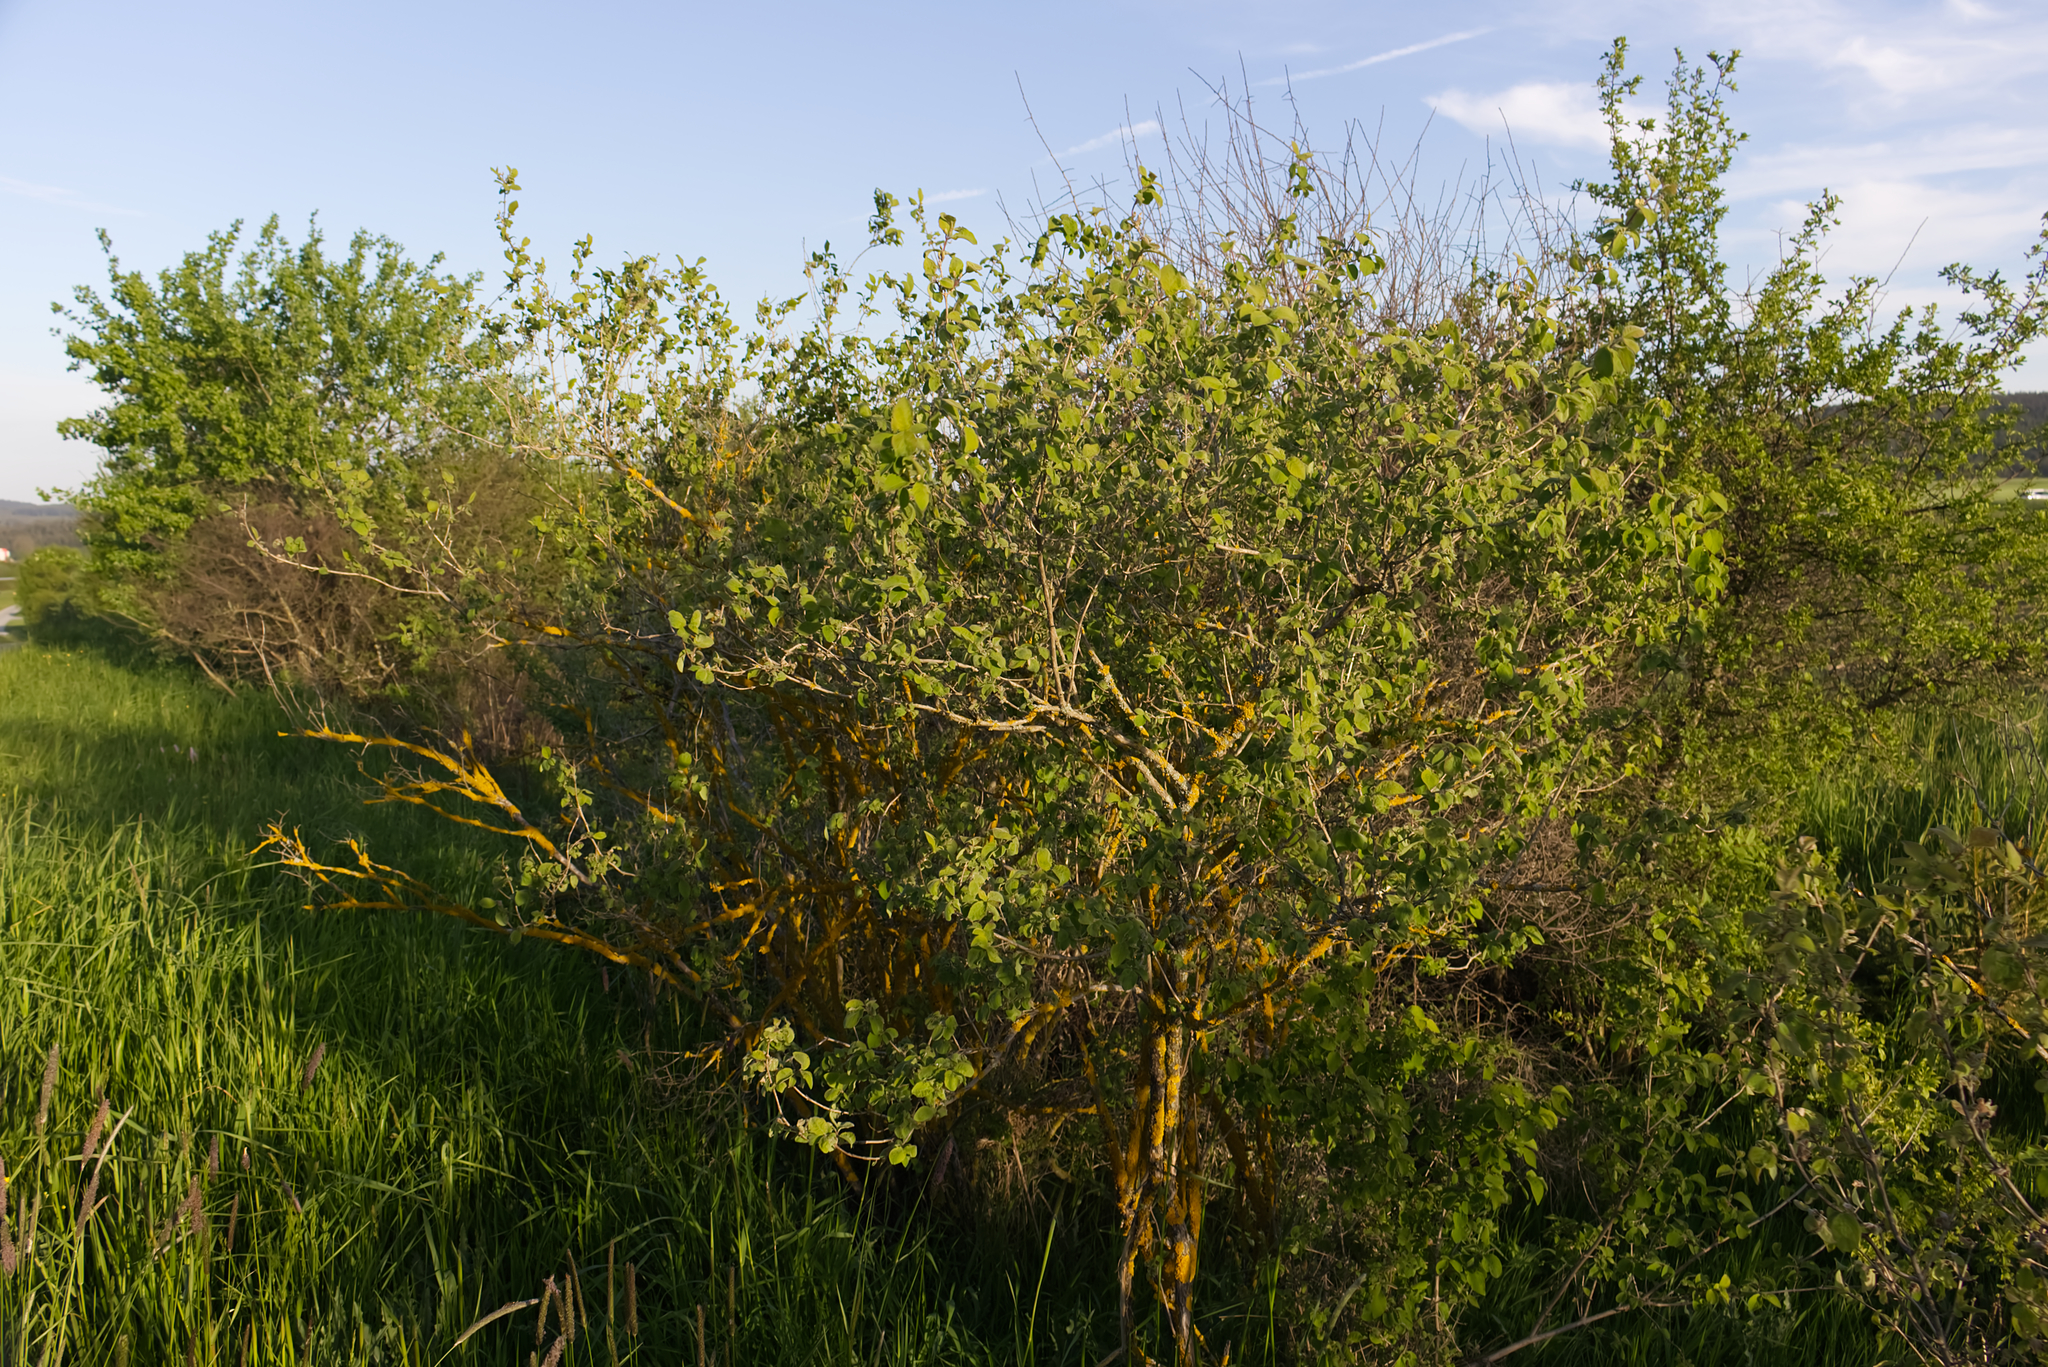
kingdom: Plantae
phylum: Tracheophyta
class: Magnoliopsida
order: Dipsacales
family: Caprifoliaceae
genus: Lonicera
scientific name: Lonicera xylosteum
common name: Fly honeysuckle
